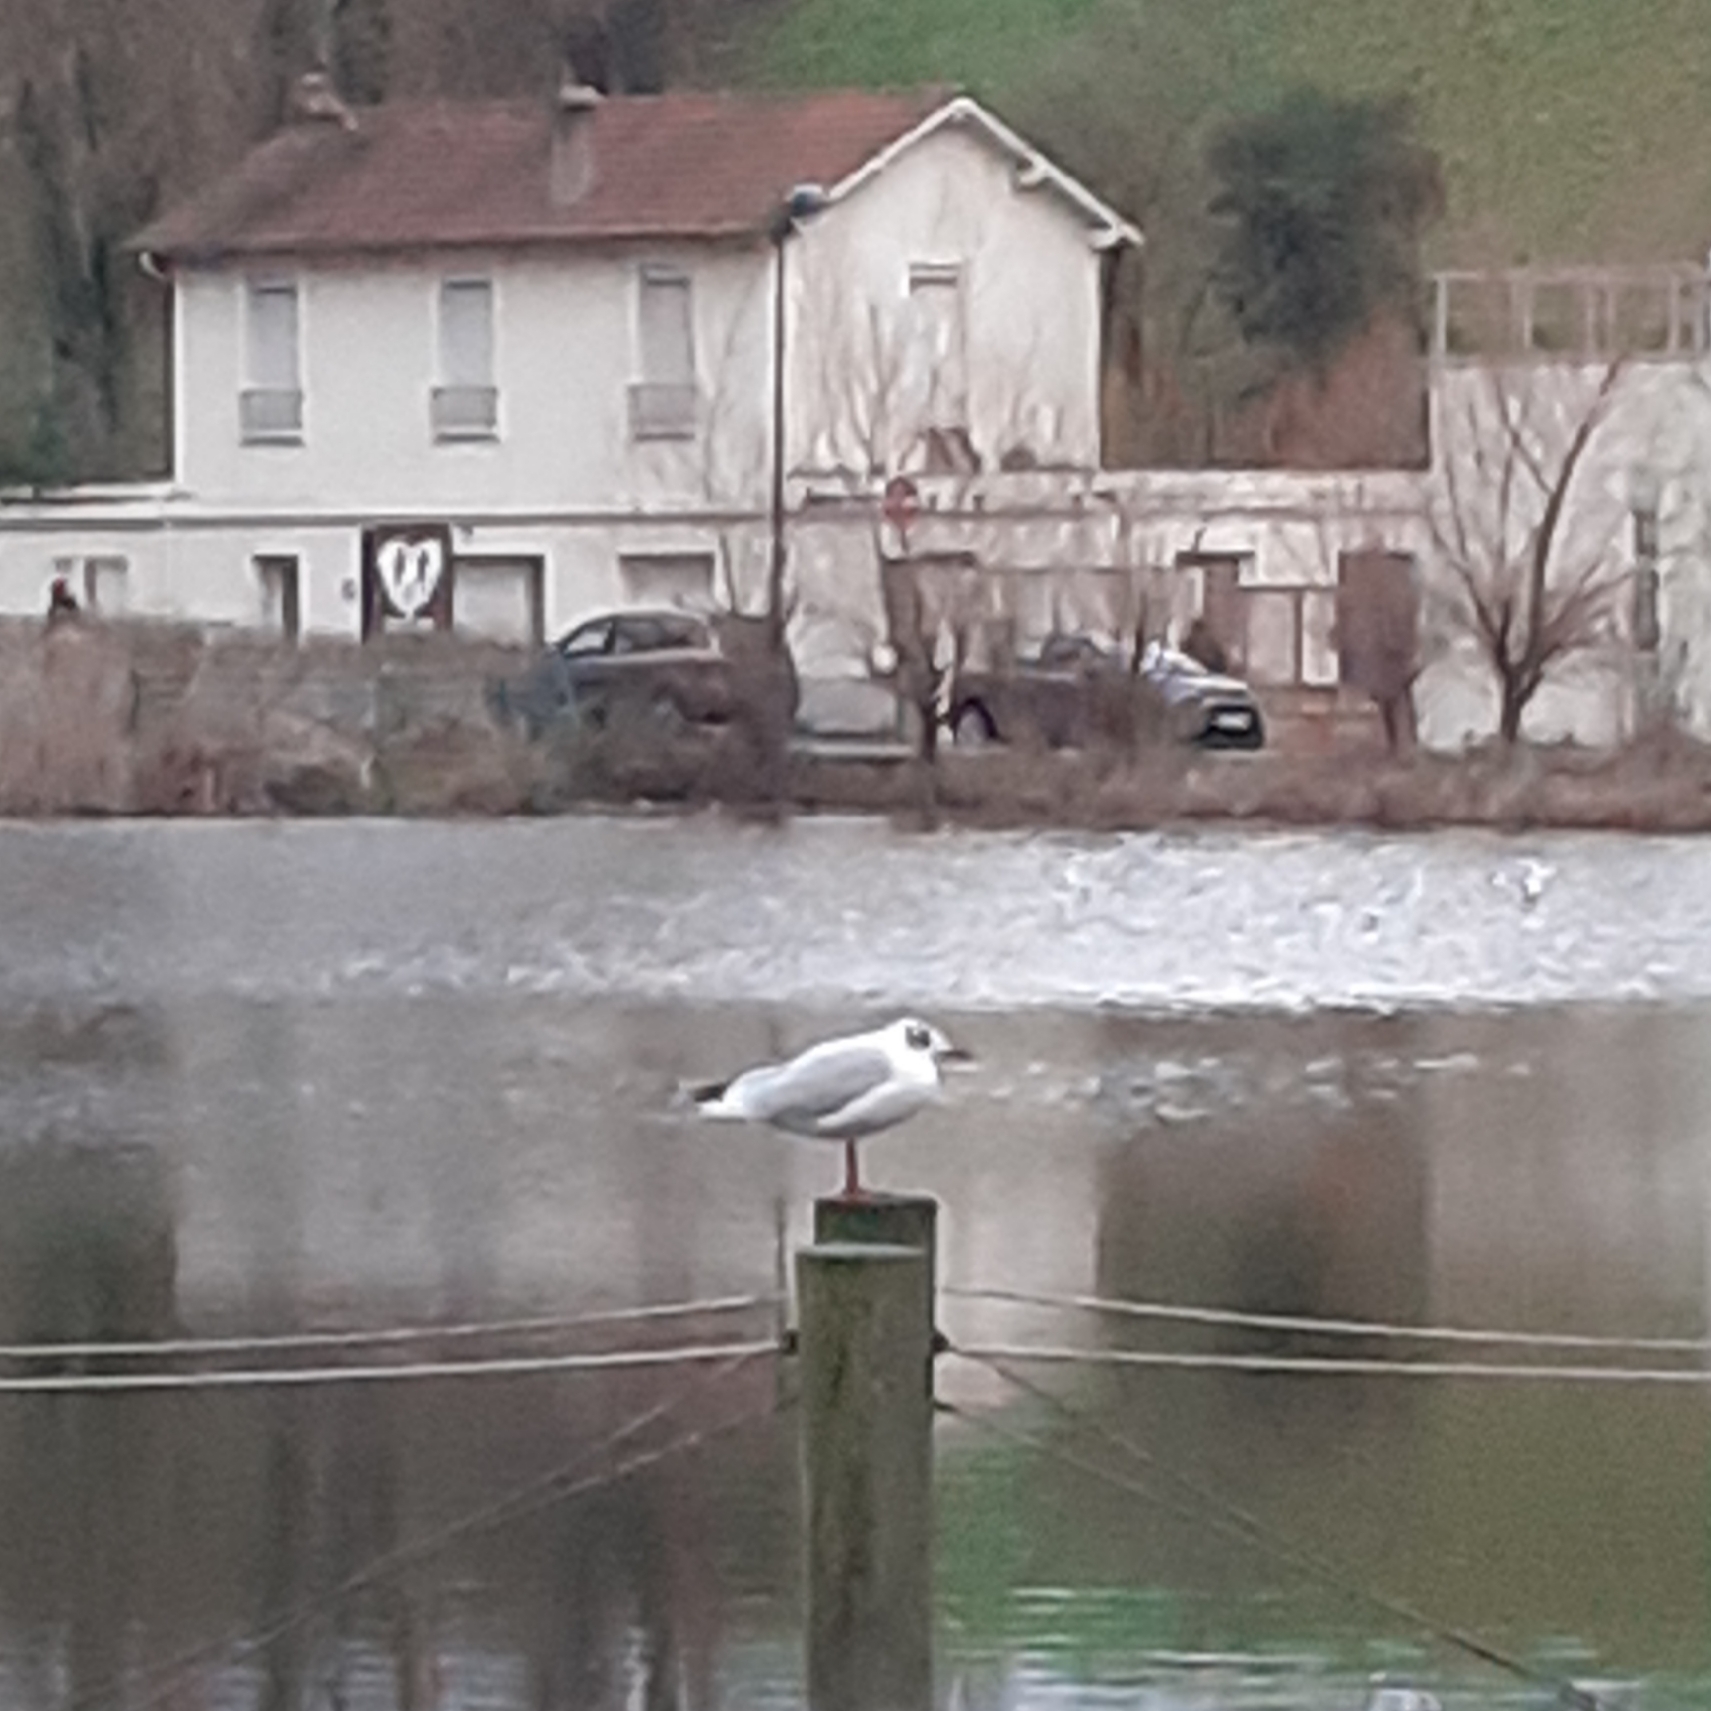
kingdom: Animalia
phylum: Chordata
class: Aves
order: Charadriiformes
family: Laridae
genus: Chroicocephalus
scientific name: Chroicocephalus ridibundus
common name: Black-headed gull
